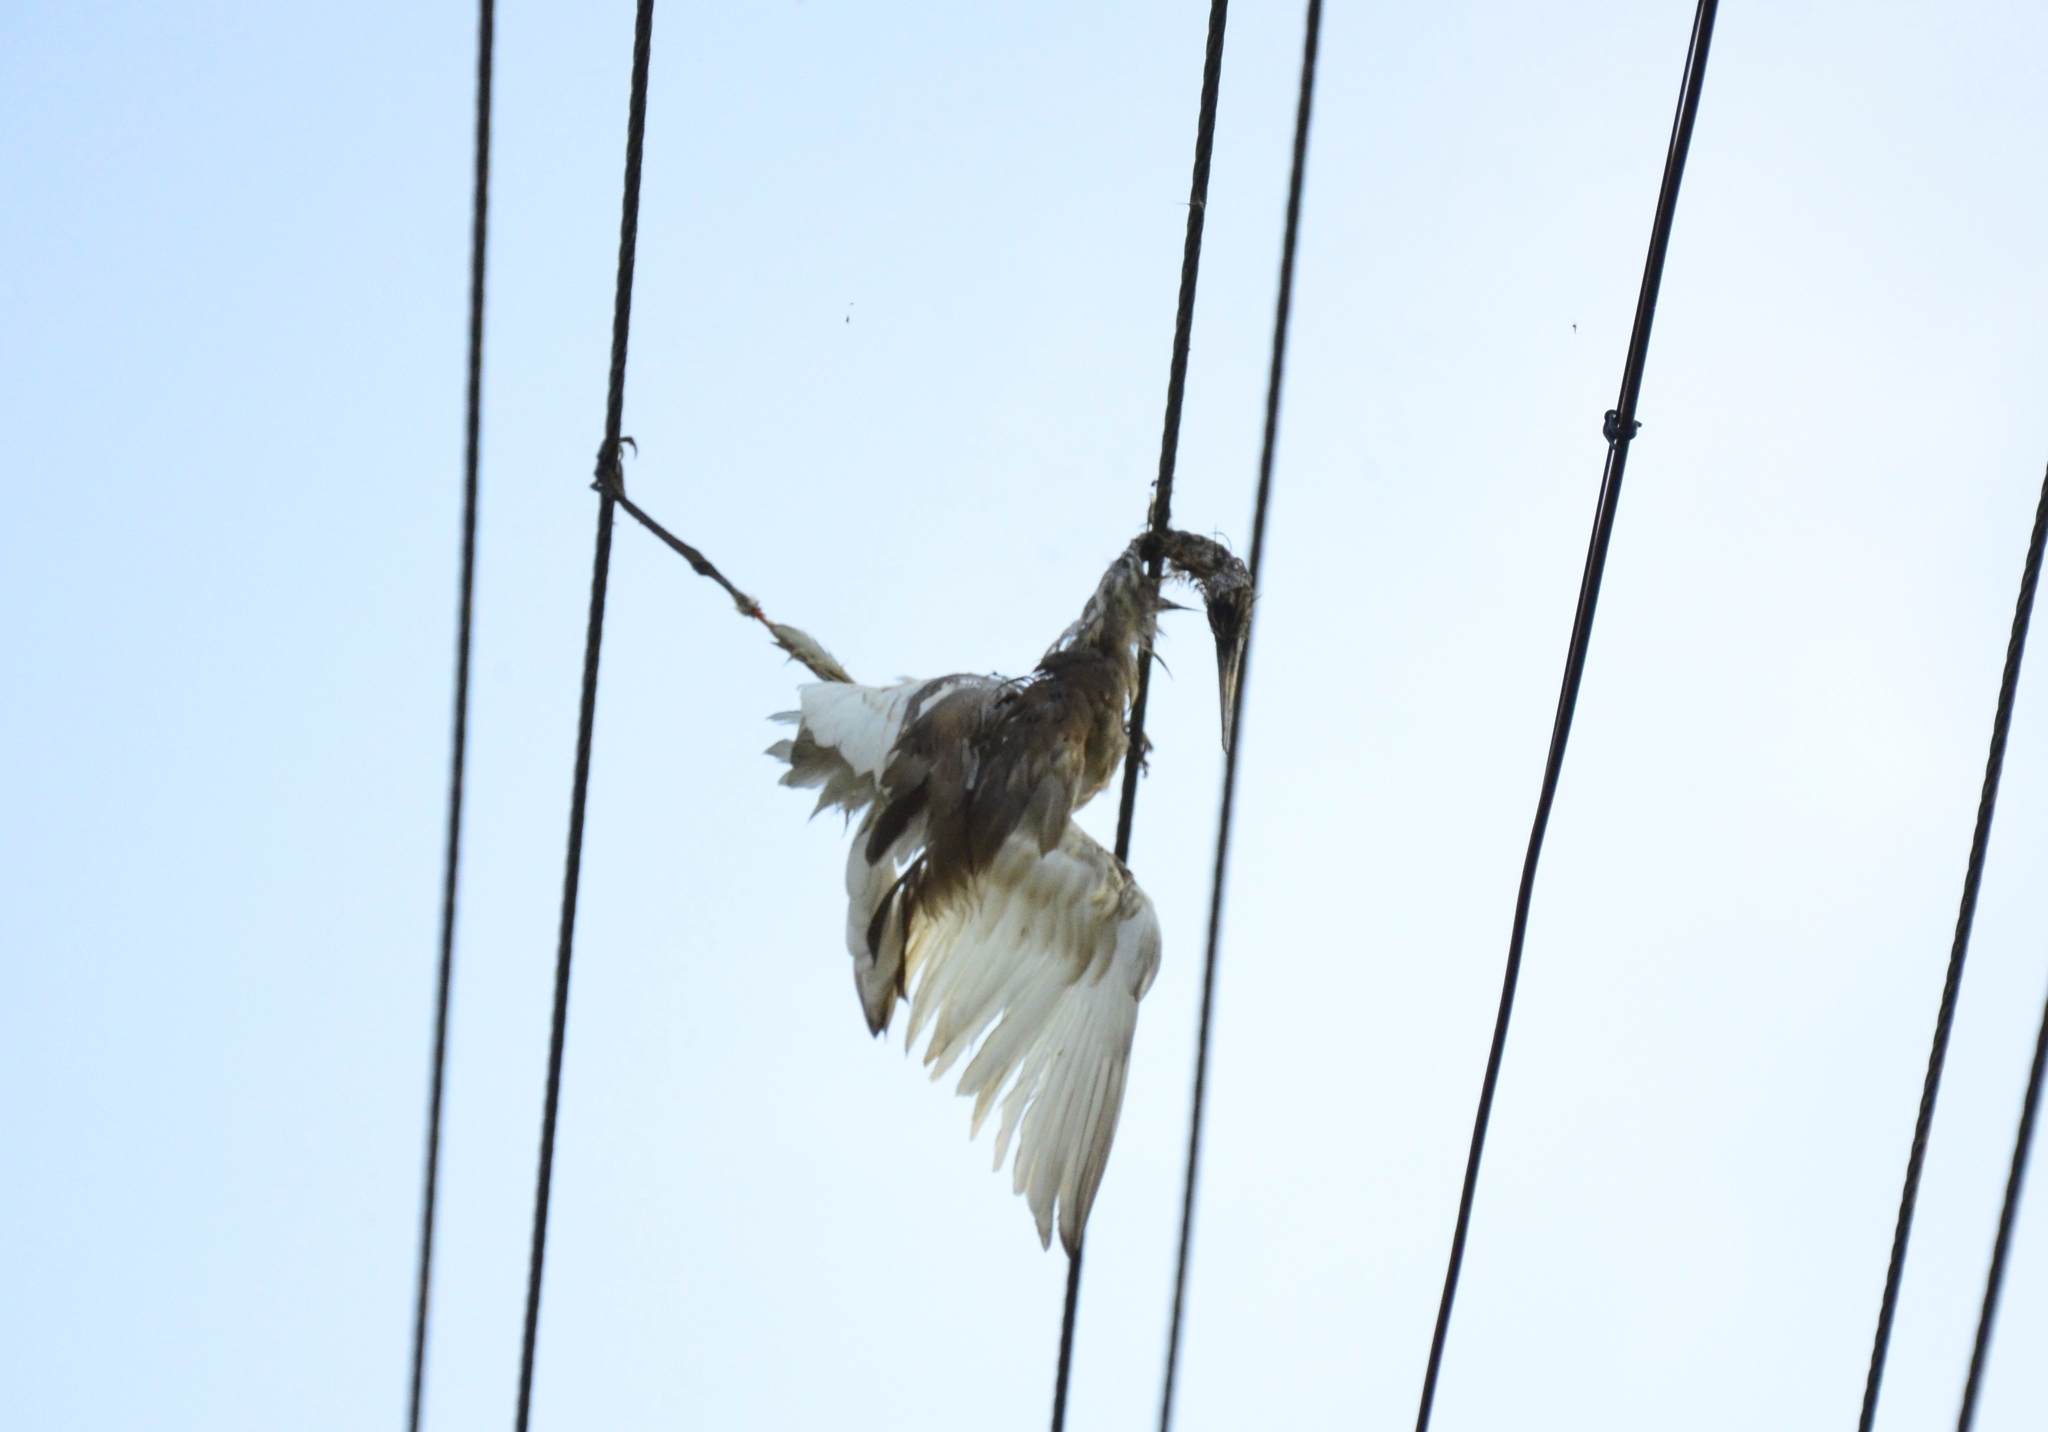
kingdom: Animalia
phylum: Chordata
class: Aves
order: Pelecaniformes
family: Ardeidae
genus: Ardeola
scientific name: Ardeola grayii
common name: Indian pond heron
